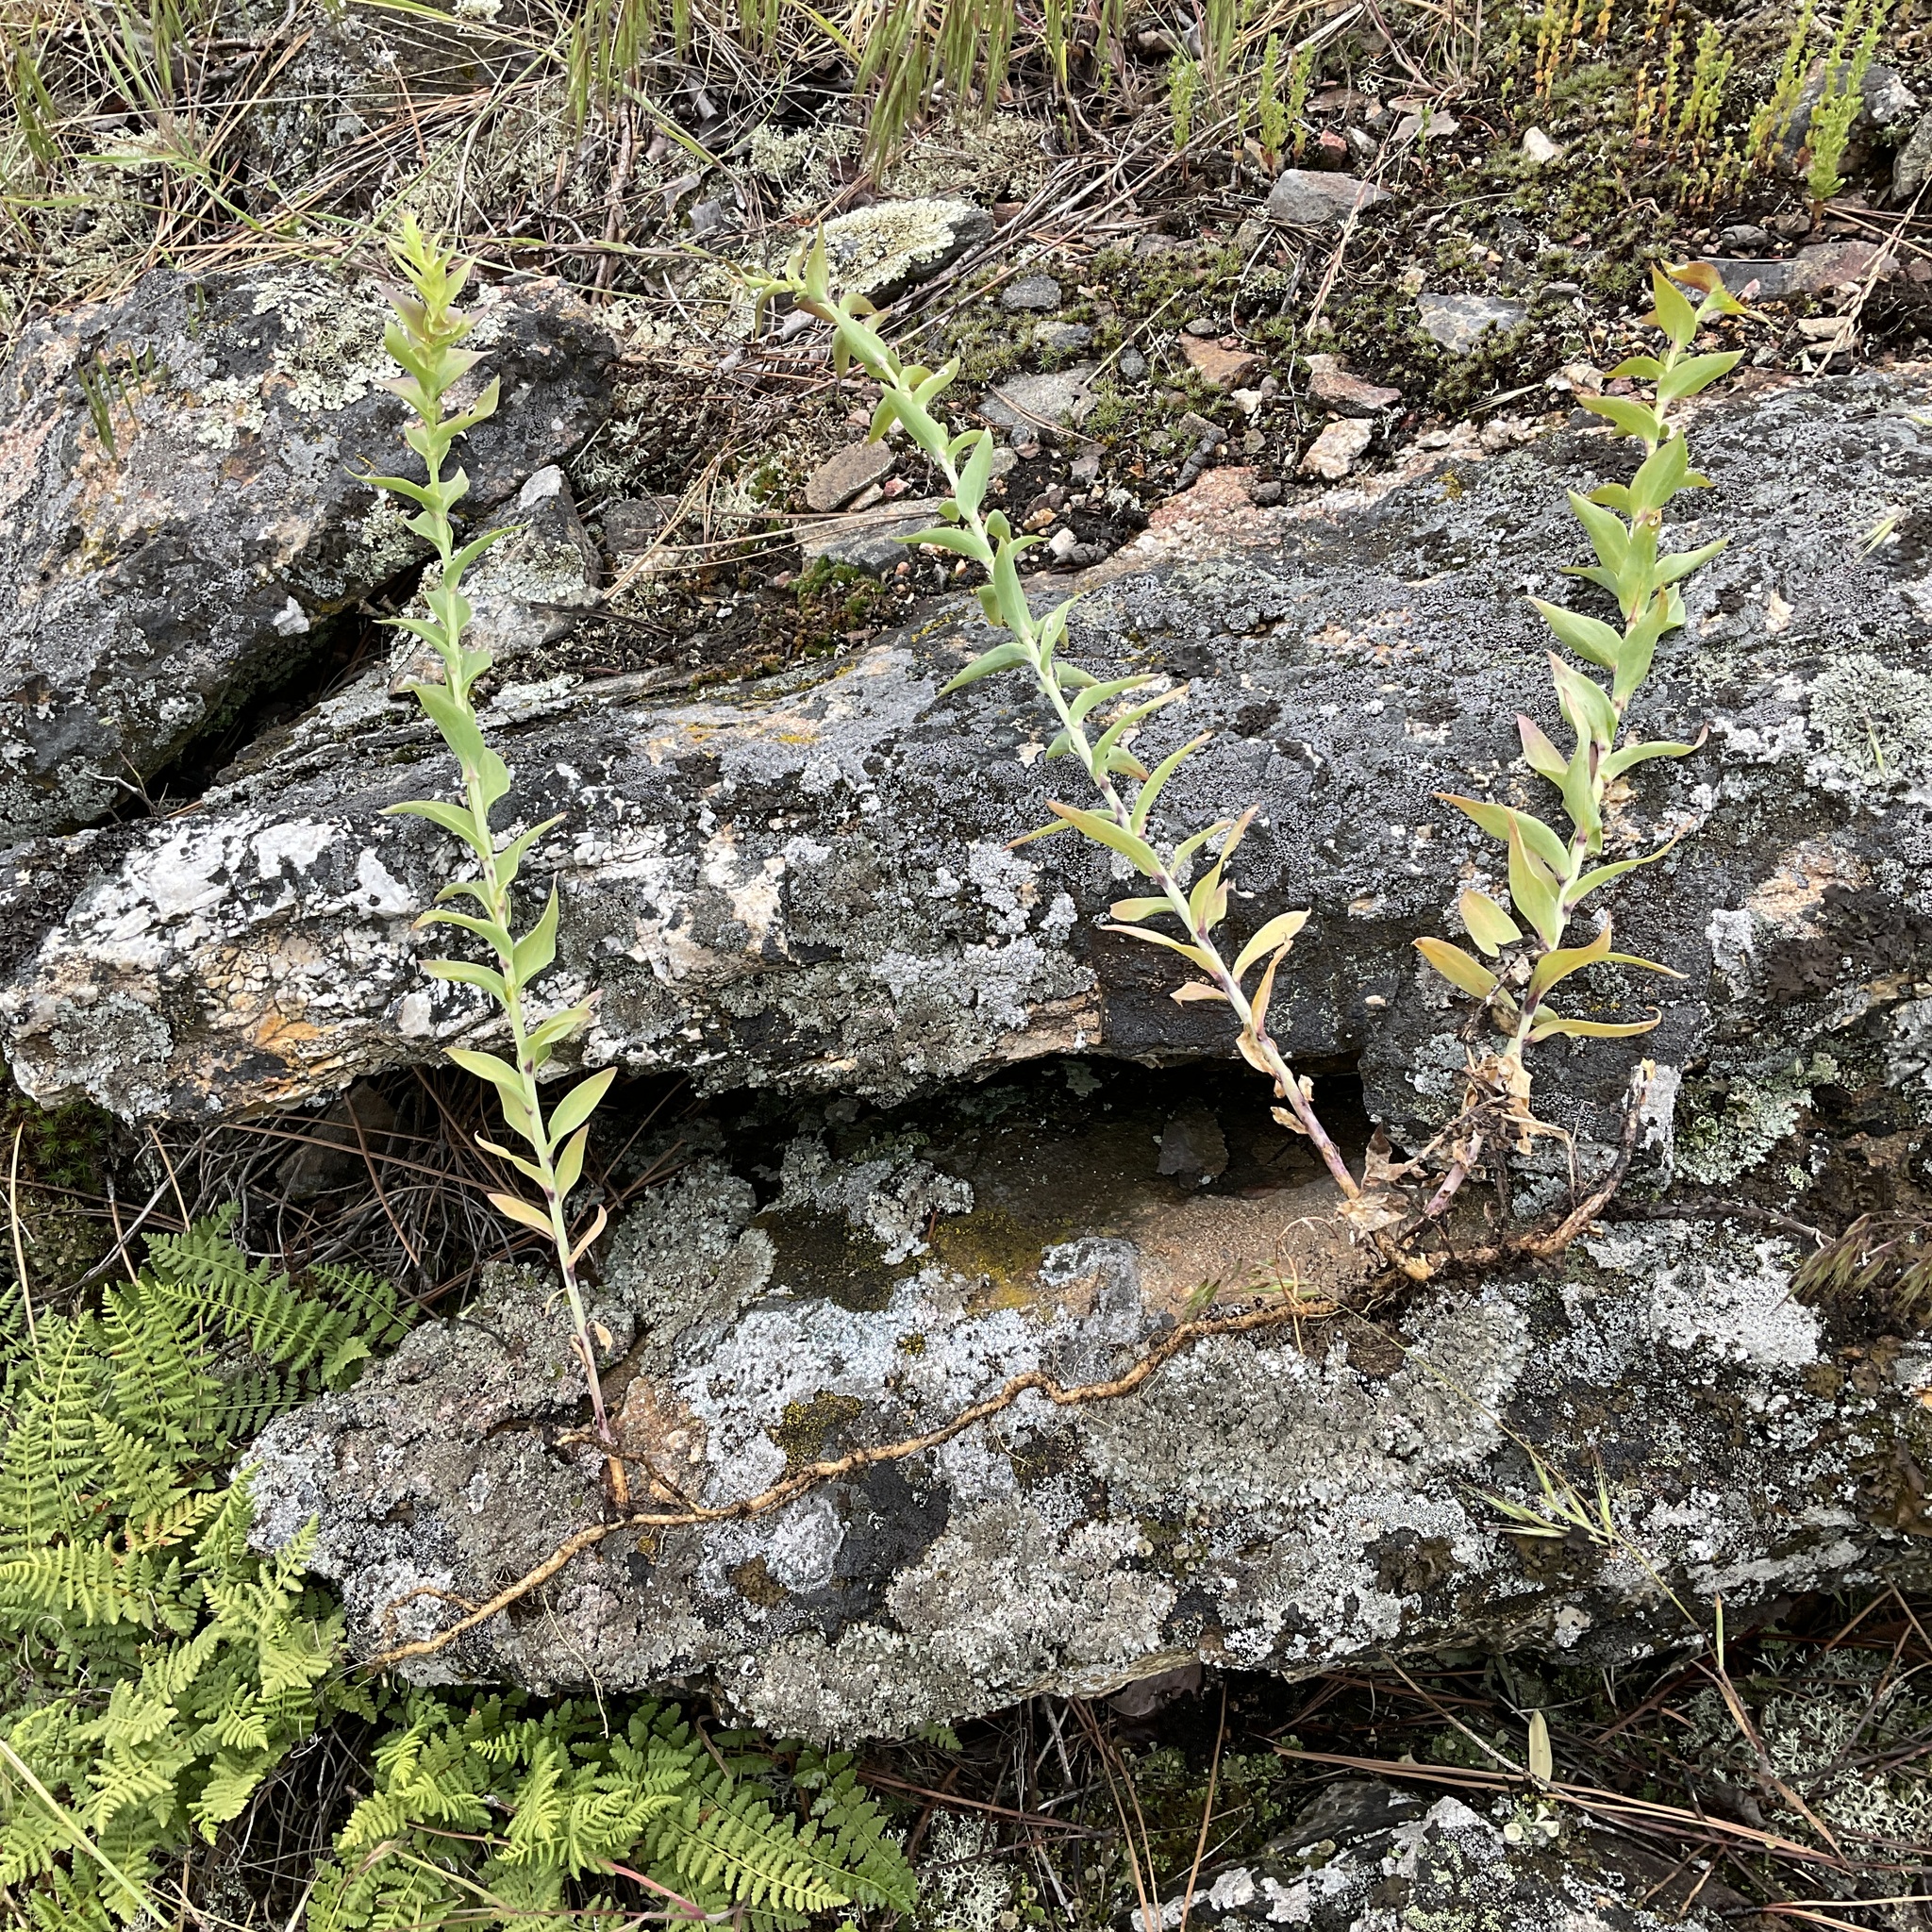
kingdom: Plantae
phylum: Tracheophyta
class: Magnoliopsida
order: Lamiales
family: Plantaginaceae
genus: Linaria
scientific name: Linaria dalmatica
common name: Dalmatian toadflax
